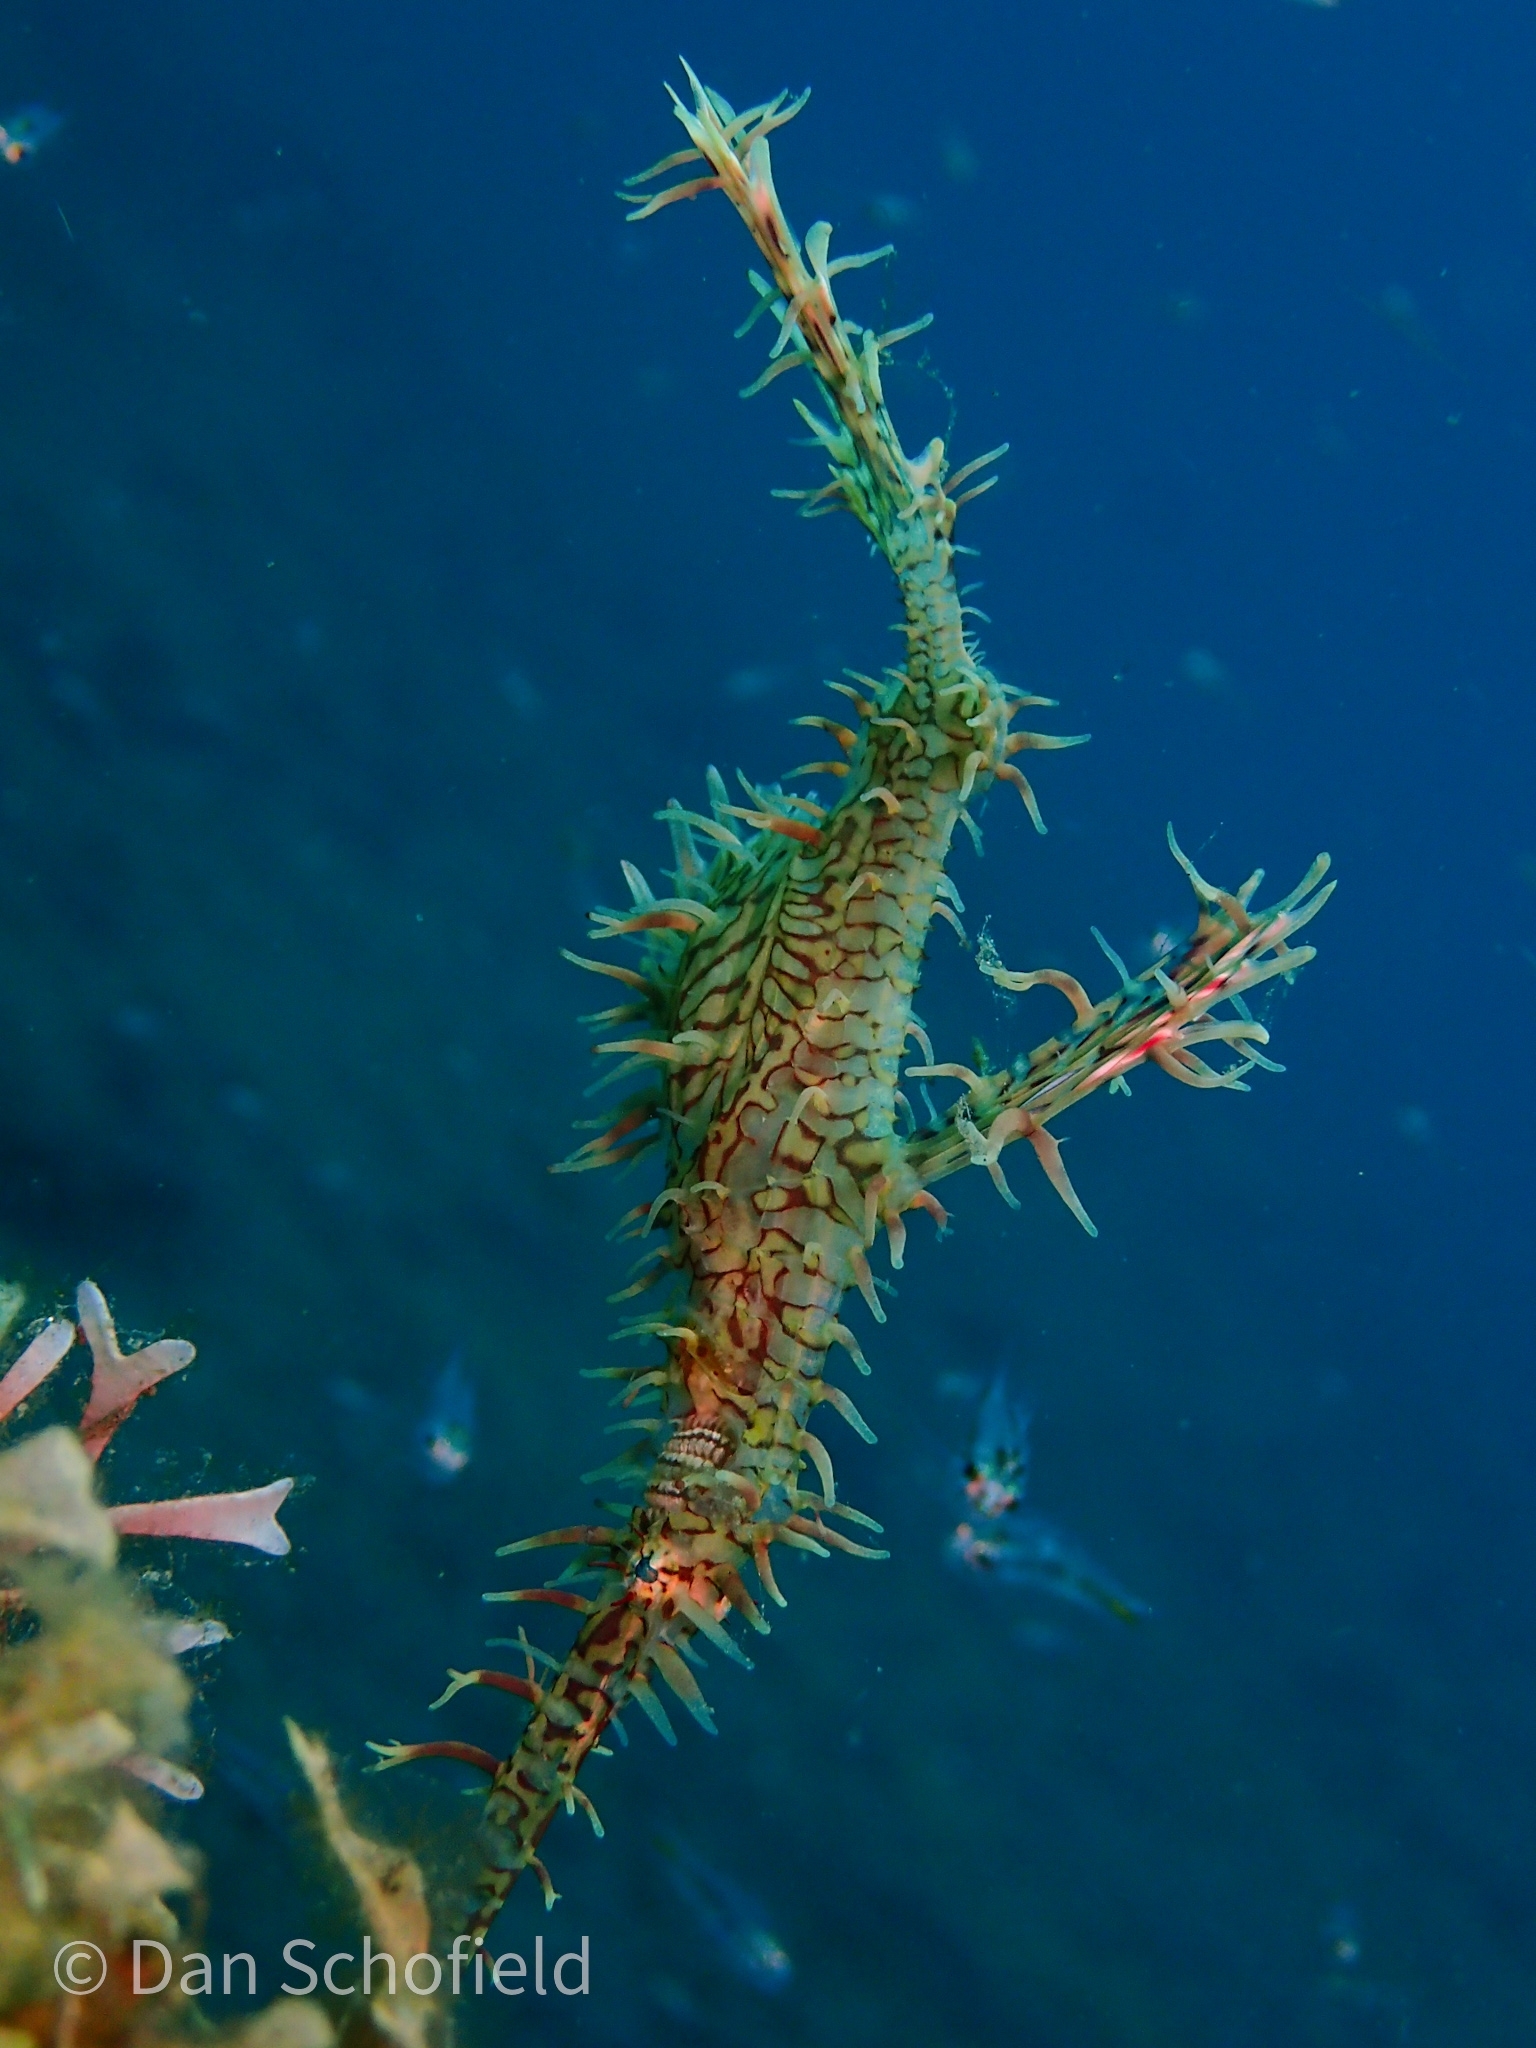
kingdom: Animalia
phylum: Chordata
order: Syngnathiformes
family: Solenostomidae
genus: Solenostomus
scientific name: Solenostomus paradoxus
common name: Ghost pipefish
